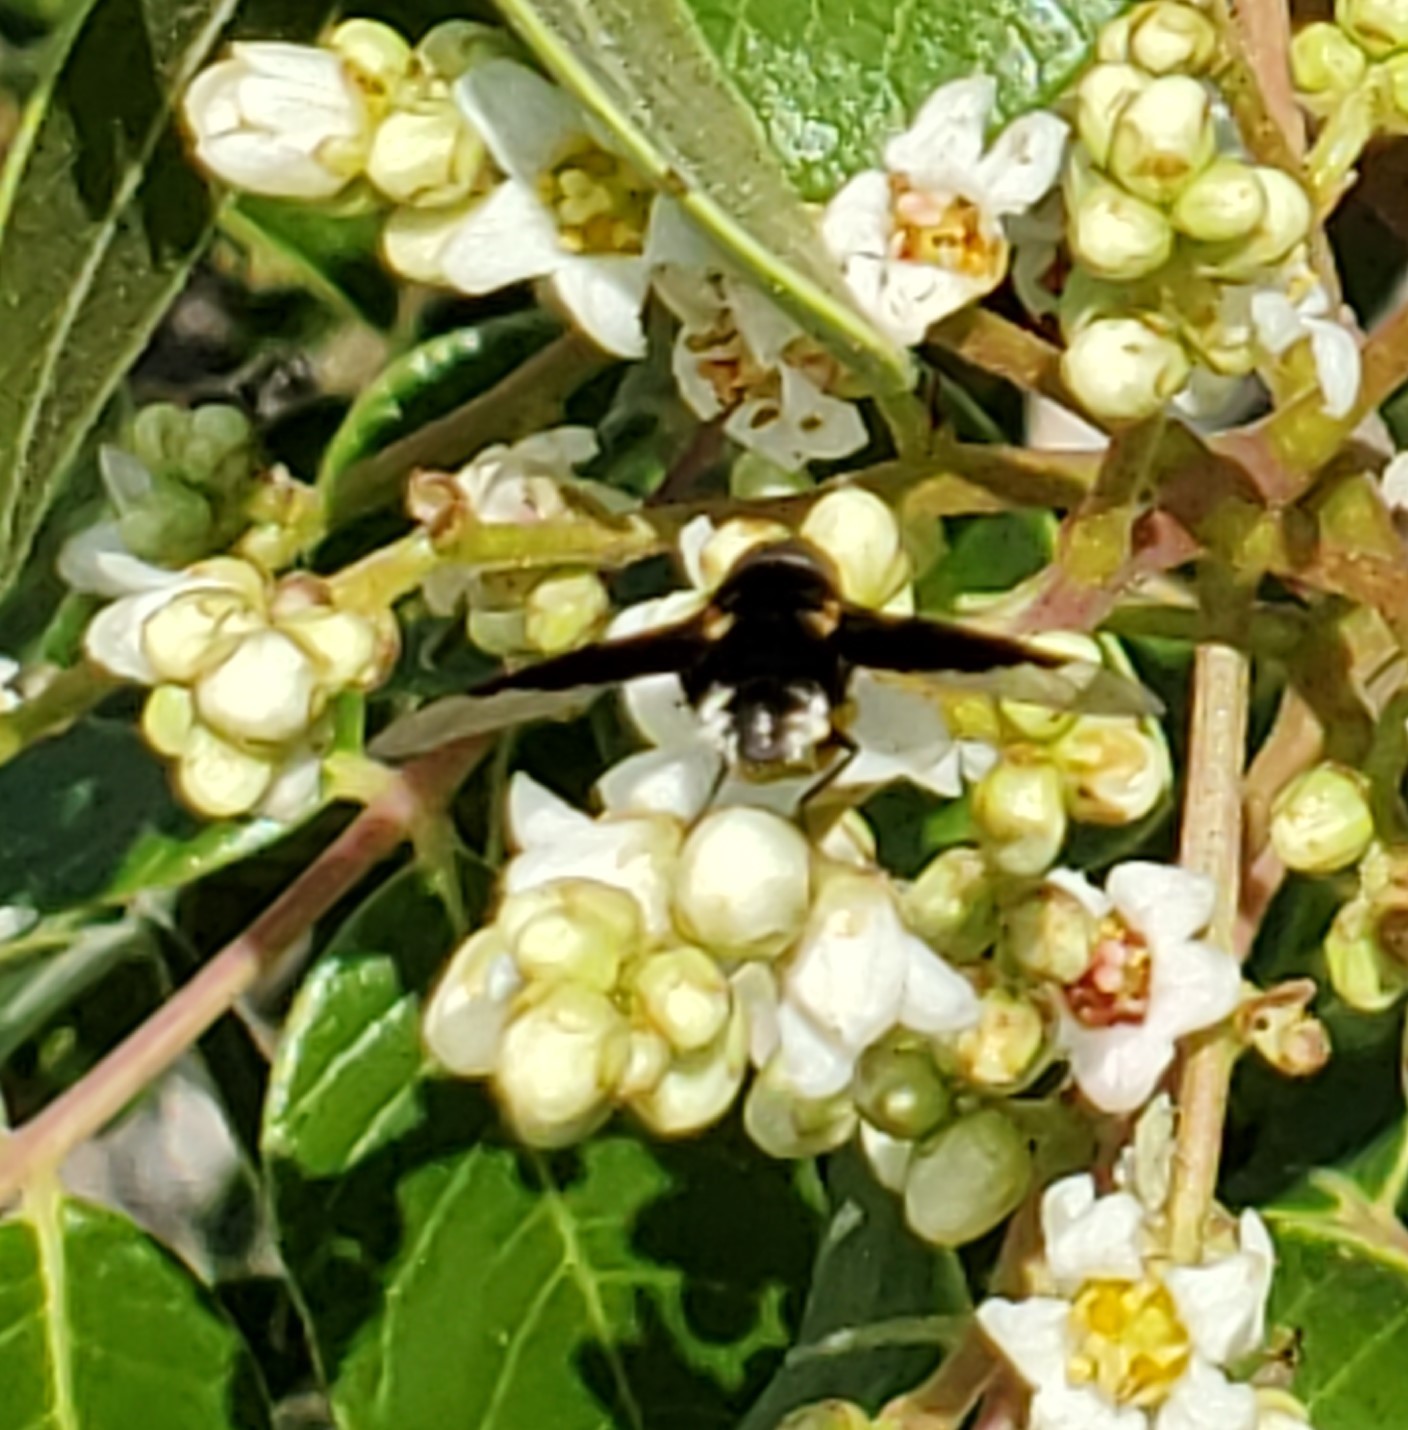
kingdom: Animalia
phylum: Arthropoda
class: Insecta
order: Diptera
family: Bombyliidae
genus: Ins
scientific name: Ins celeris
